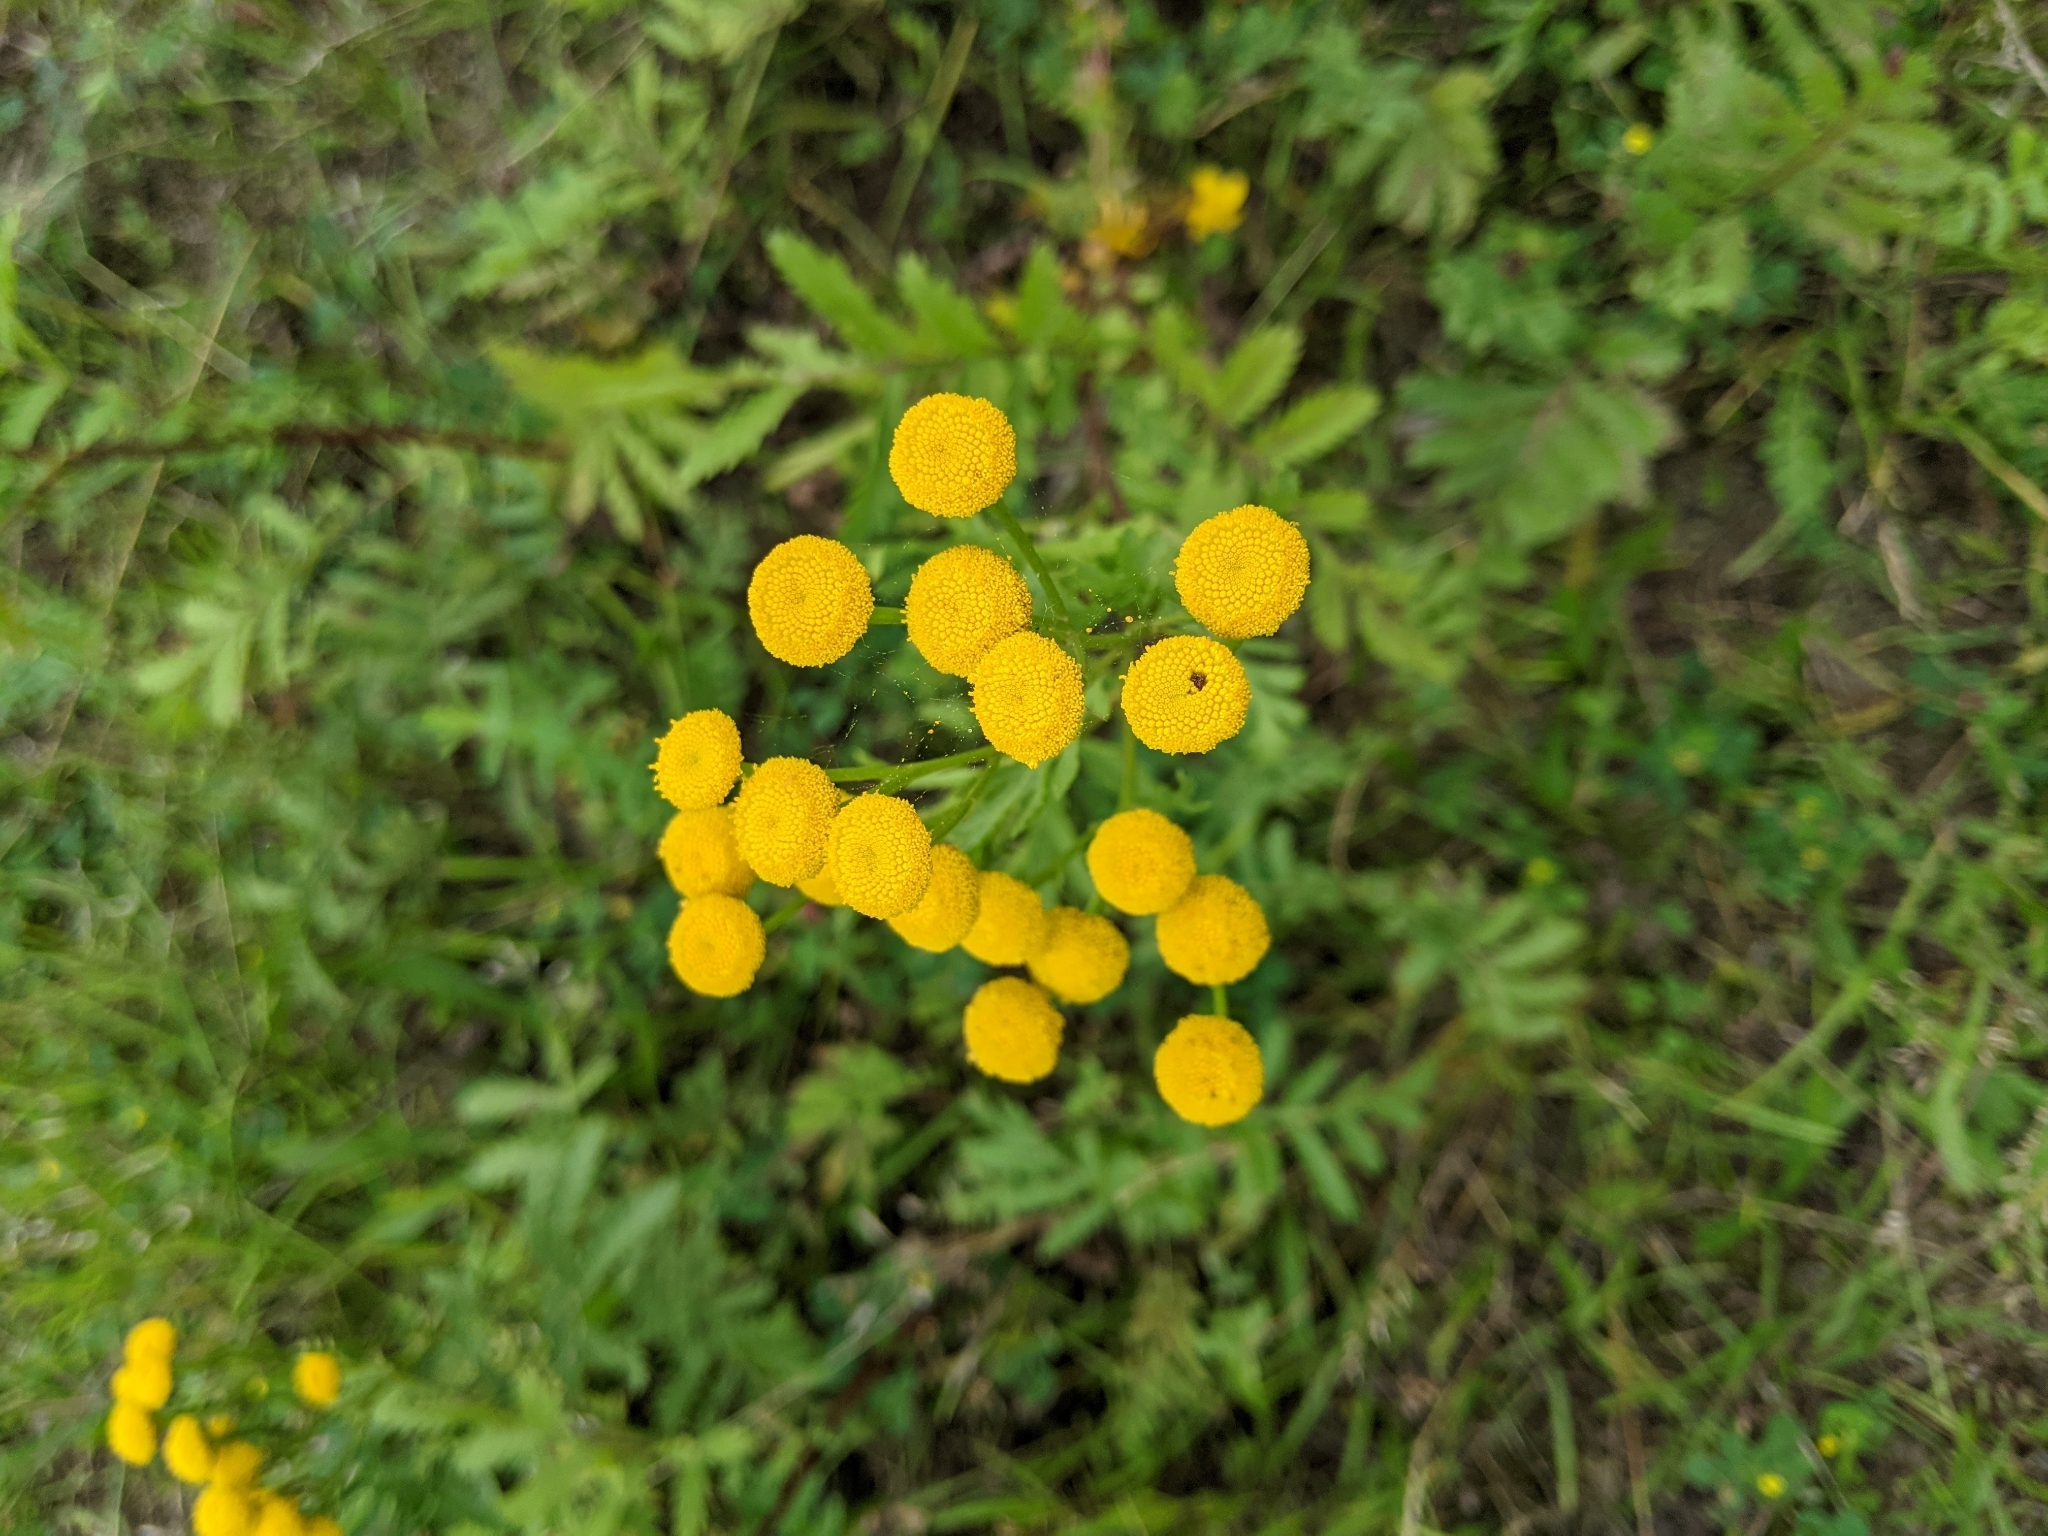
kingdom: Plantae
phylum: Tracheophyta
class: Magnoliopsida
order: Asterales
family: Asteraceae
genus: Tanacetum
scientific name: Tanacetum vulgare
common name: Common tansy
